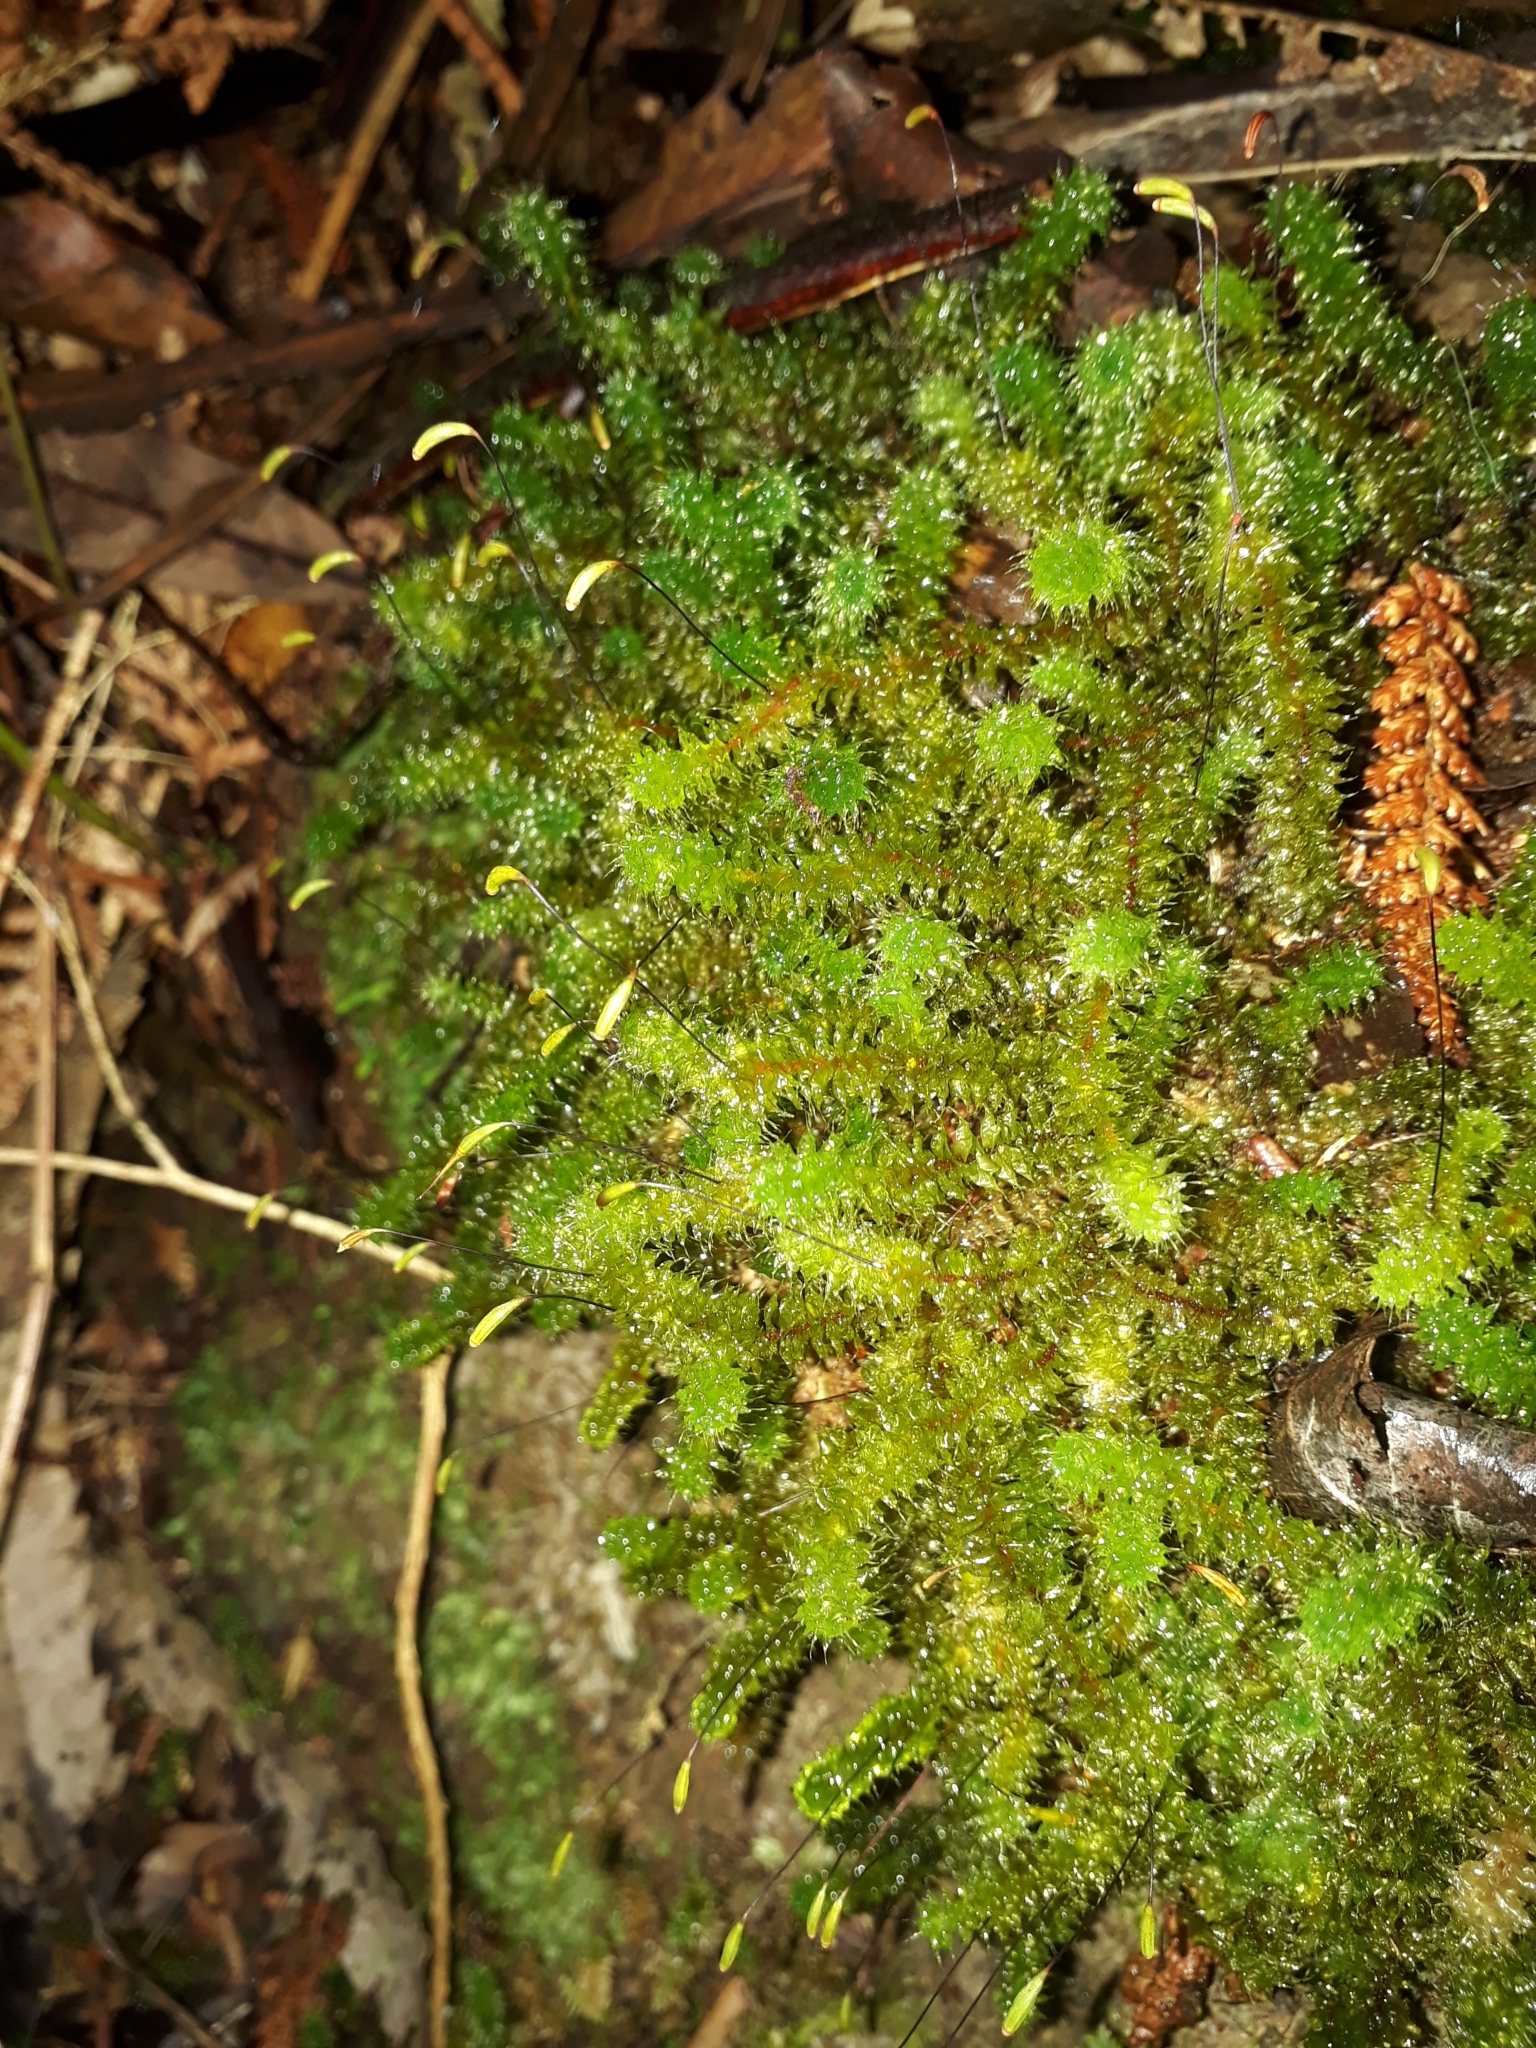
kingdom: Plantae
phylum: Bryophyta
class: Bryopsida
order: Ptychomniales
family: Ptychomniaceae
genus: Ptychomnion
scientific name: Ptychomnion aciculare
